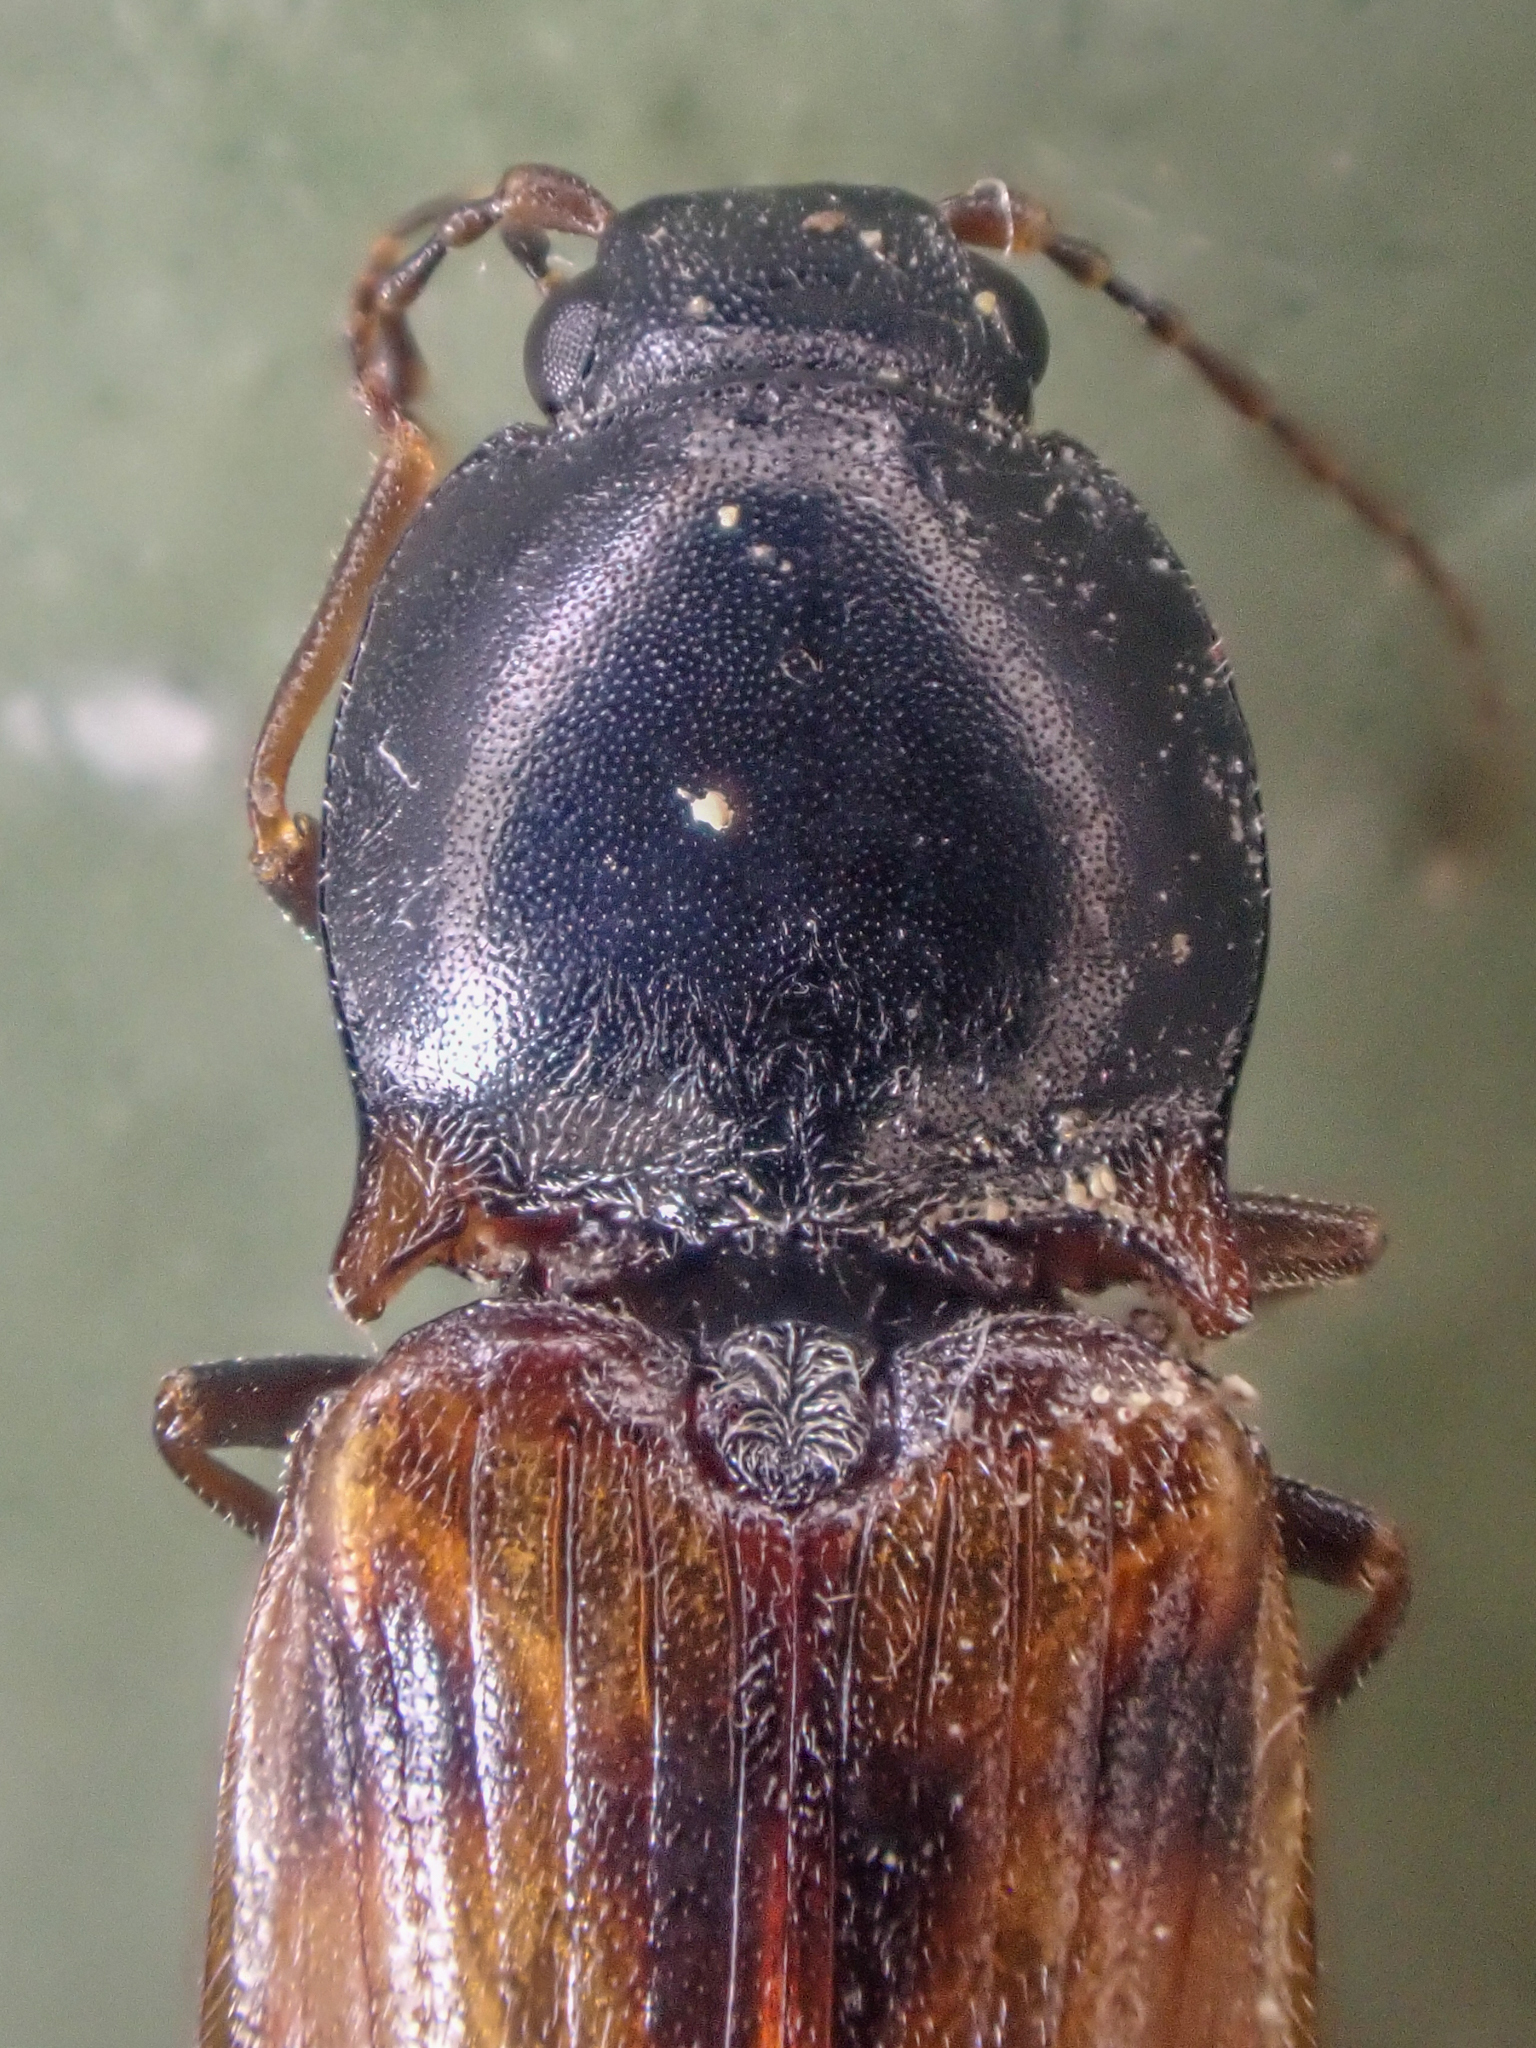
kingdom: Animalia
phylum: Arthropoda
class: Insecta
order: Coleoptera
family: Elateridae
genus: Stropenron
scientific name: Stropenron pudica
